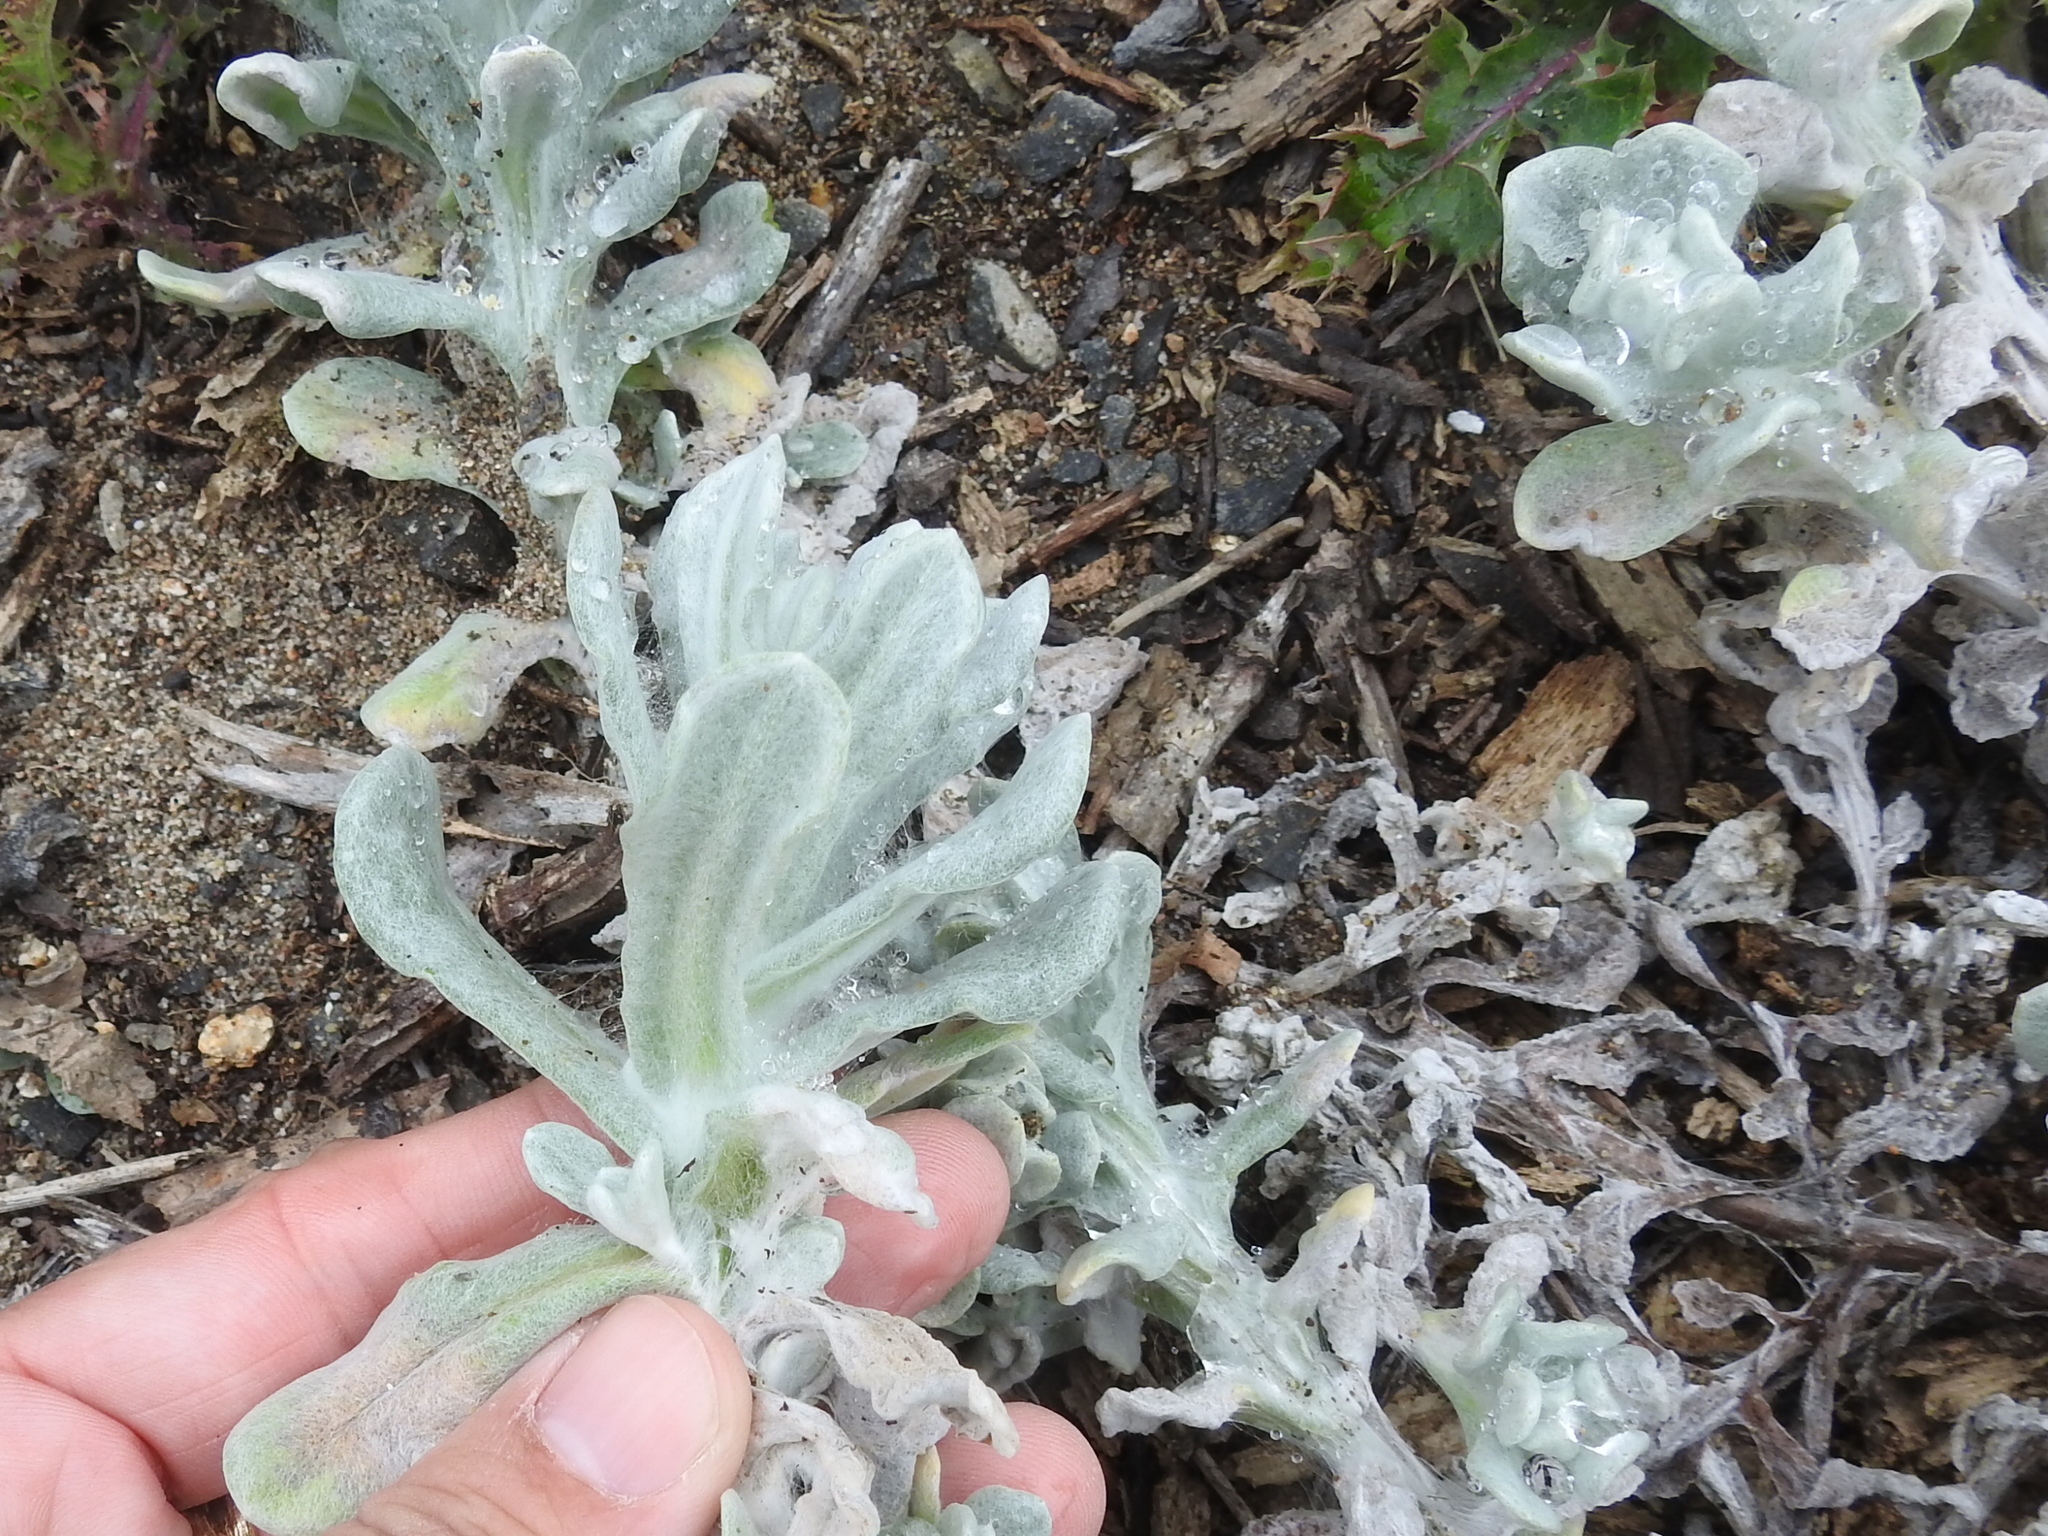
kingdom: Plantae
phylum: Tracheophyta
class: Magnoliopsida
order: Asterales
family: Asteraceae
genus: Pseudognaphalium
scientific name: Pseudognaphalium stramineum
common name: Cotton-batting-plant
